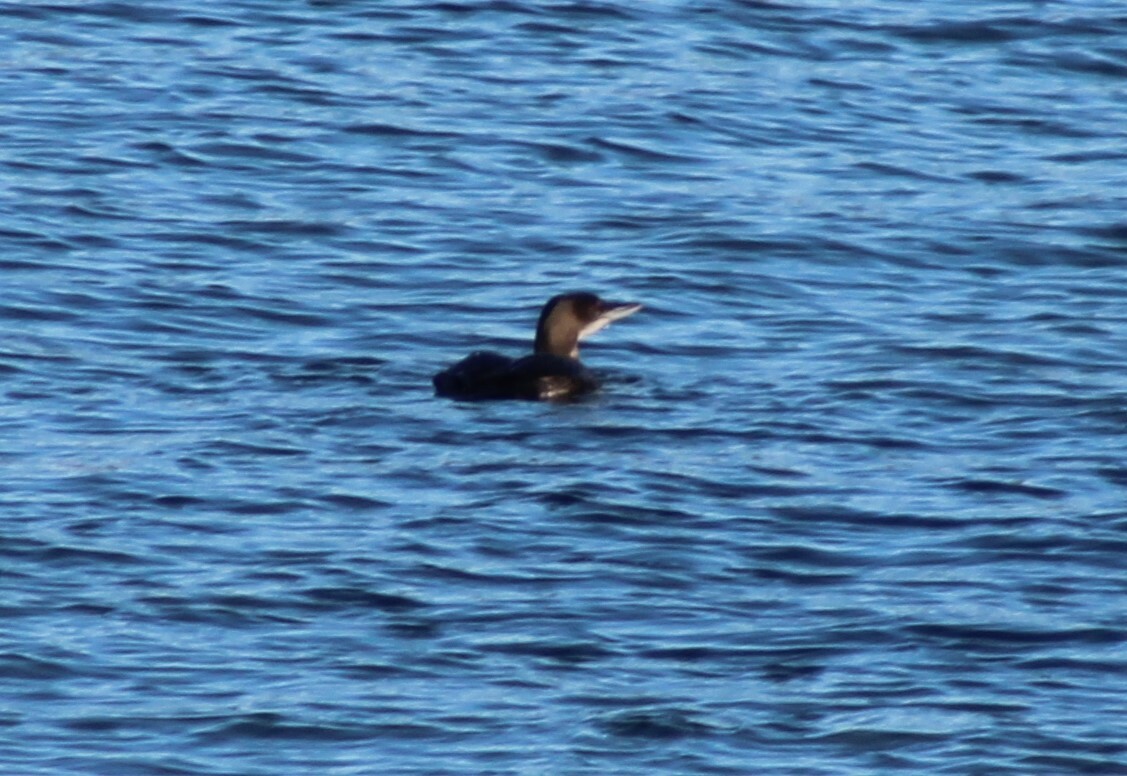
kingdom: Animalia
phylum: Chordata
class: Aves
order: Gaviiformes
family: Gaviidae
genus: Gavia
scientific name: Gavia immer
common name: Common loon
